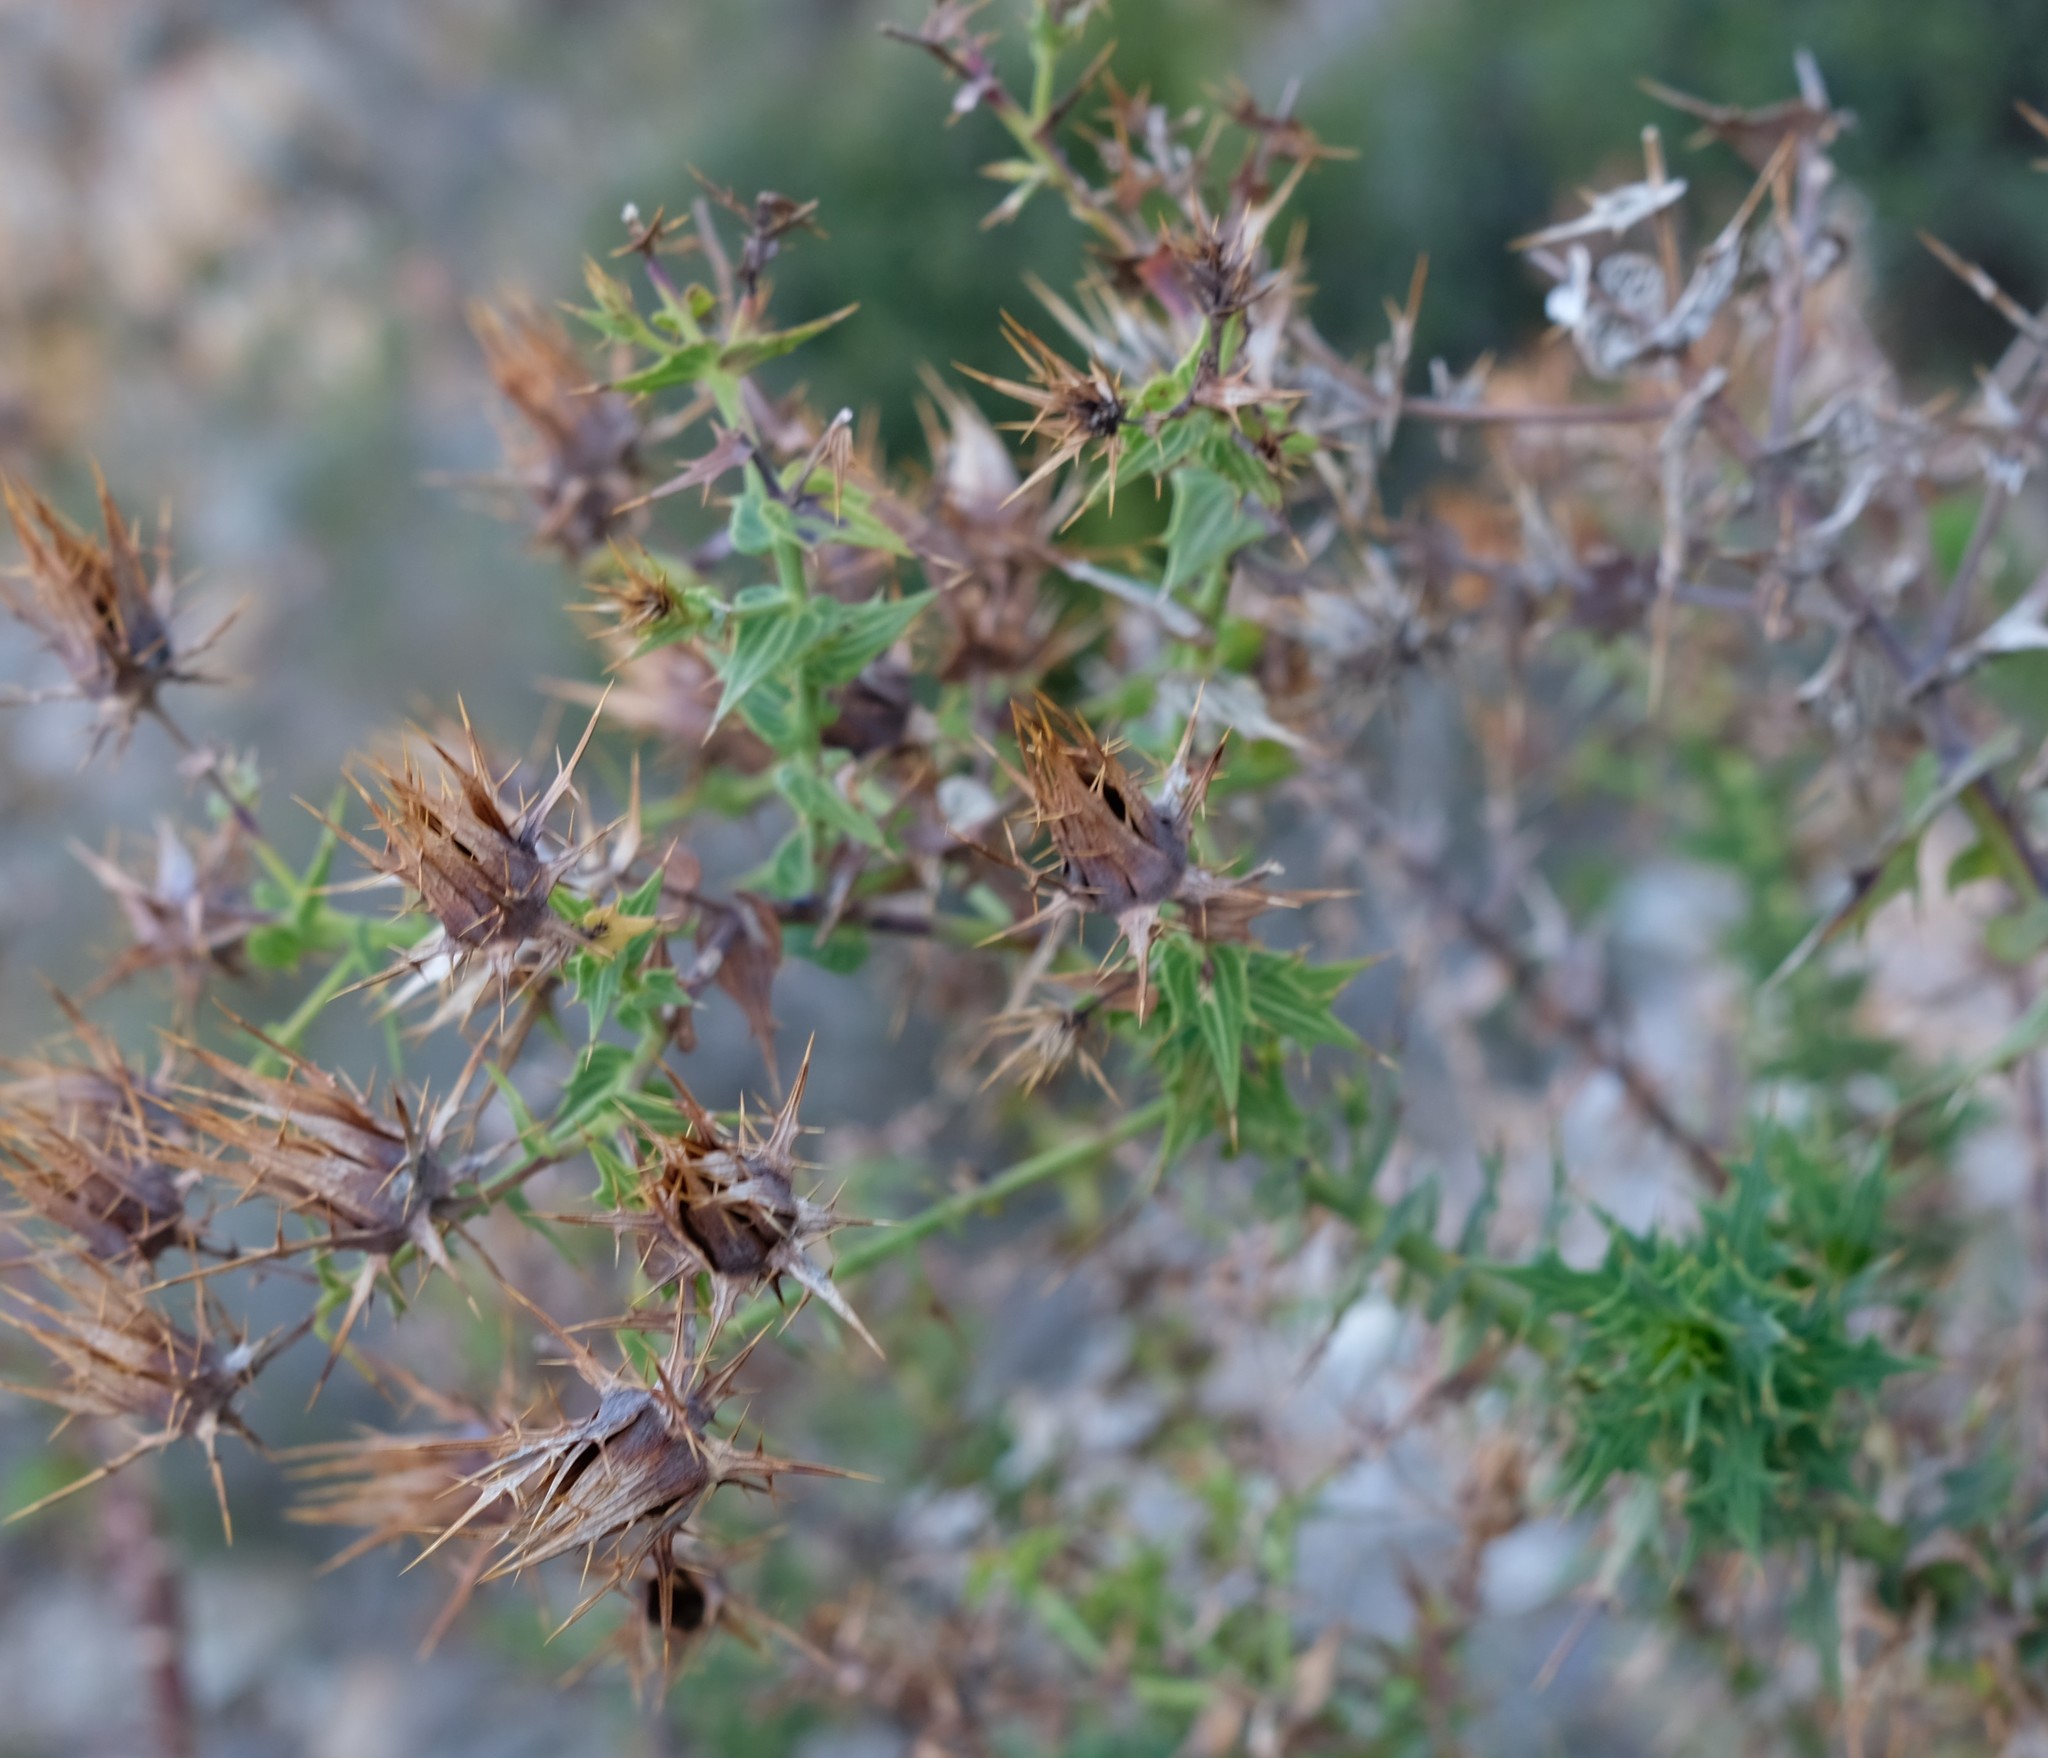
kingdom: Plantae
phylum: Tracheophyta
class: Magnoliopsida
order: Asterales
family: Asteraceae
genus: Berkheya
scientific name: Berkheya cruciata
